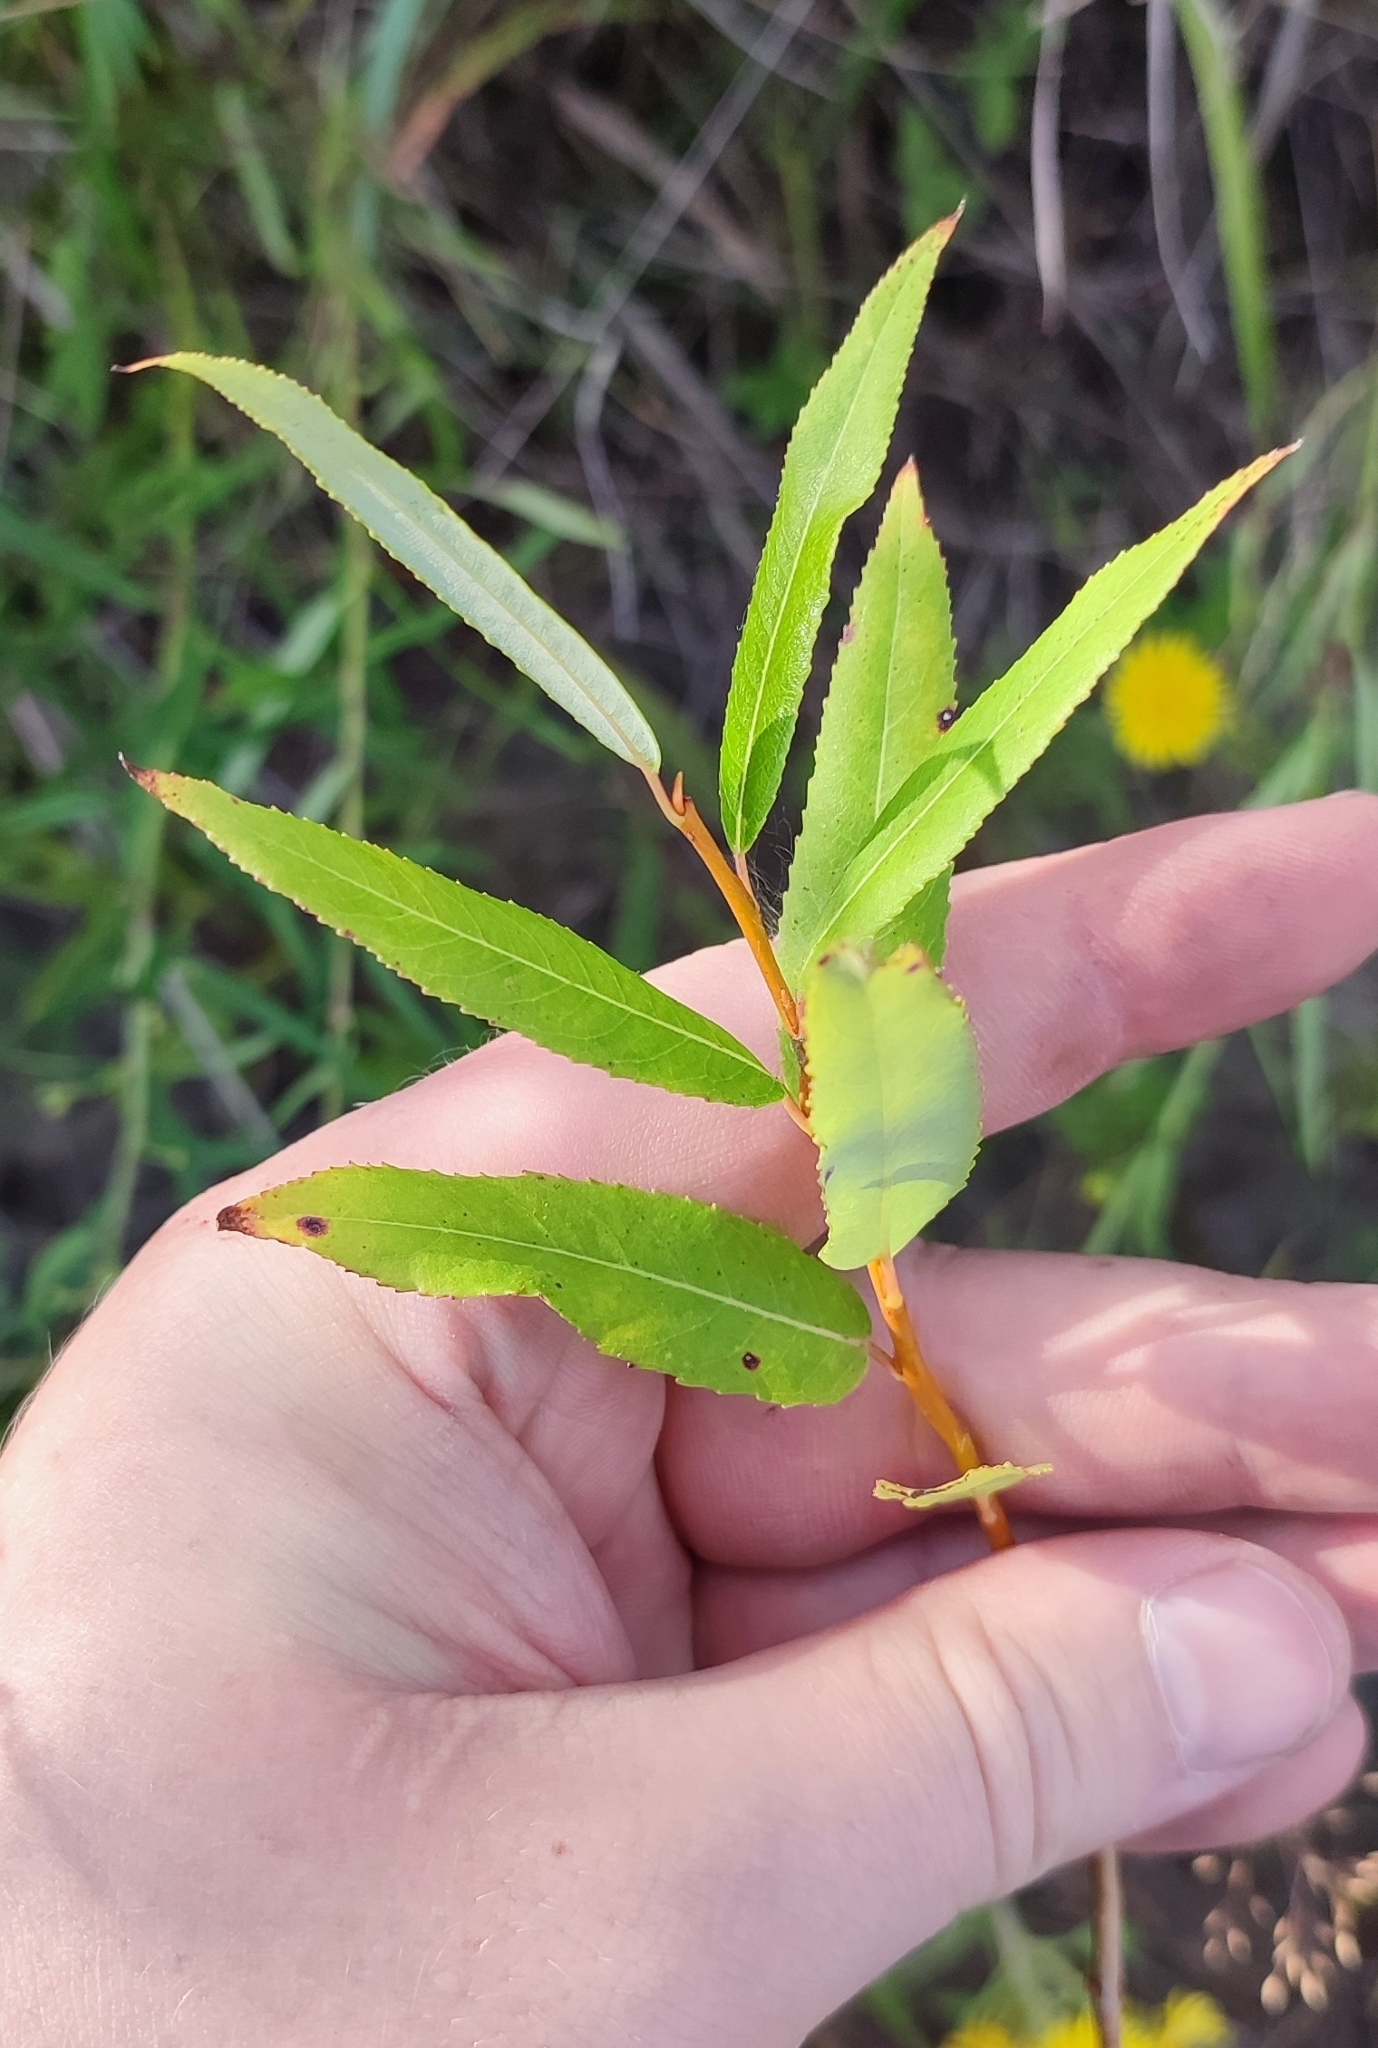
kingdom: Plantae
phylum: Tracheophyta
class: Magnoliopsida
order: Malpighiales
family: Salicaceae
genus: Salix
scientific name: Salix triandra
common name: Almond willow
